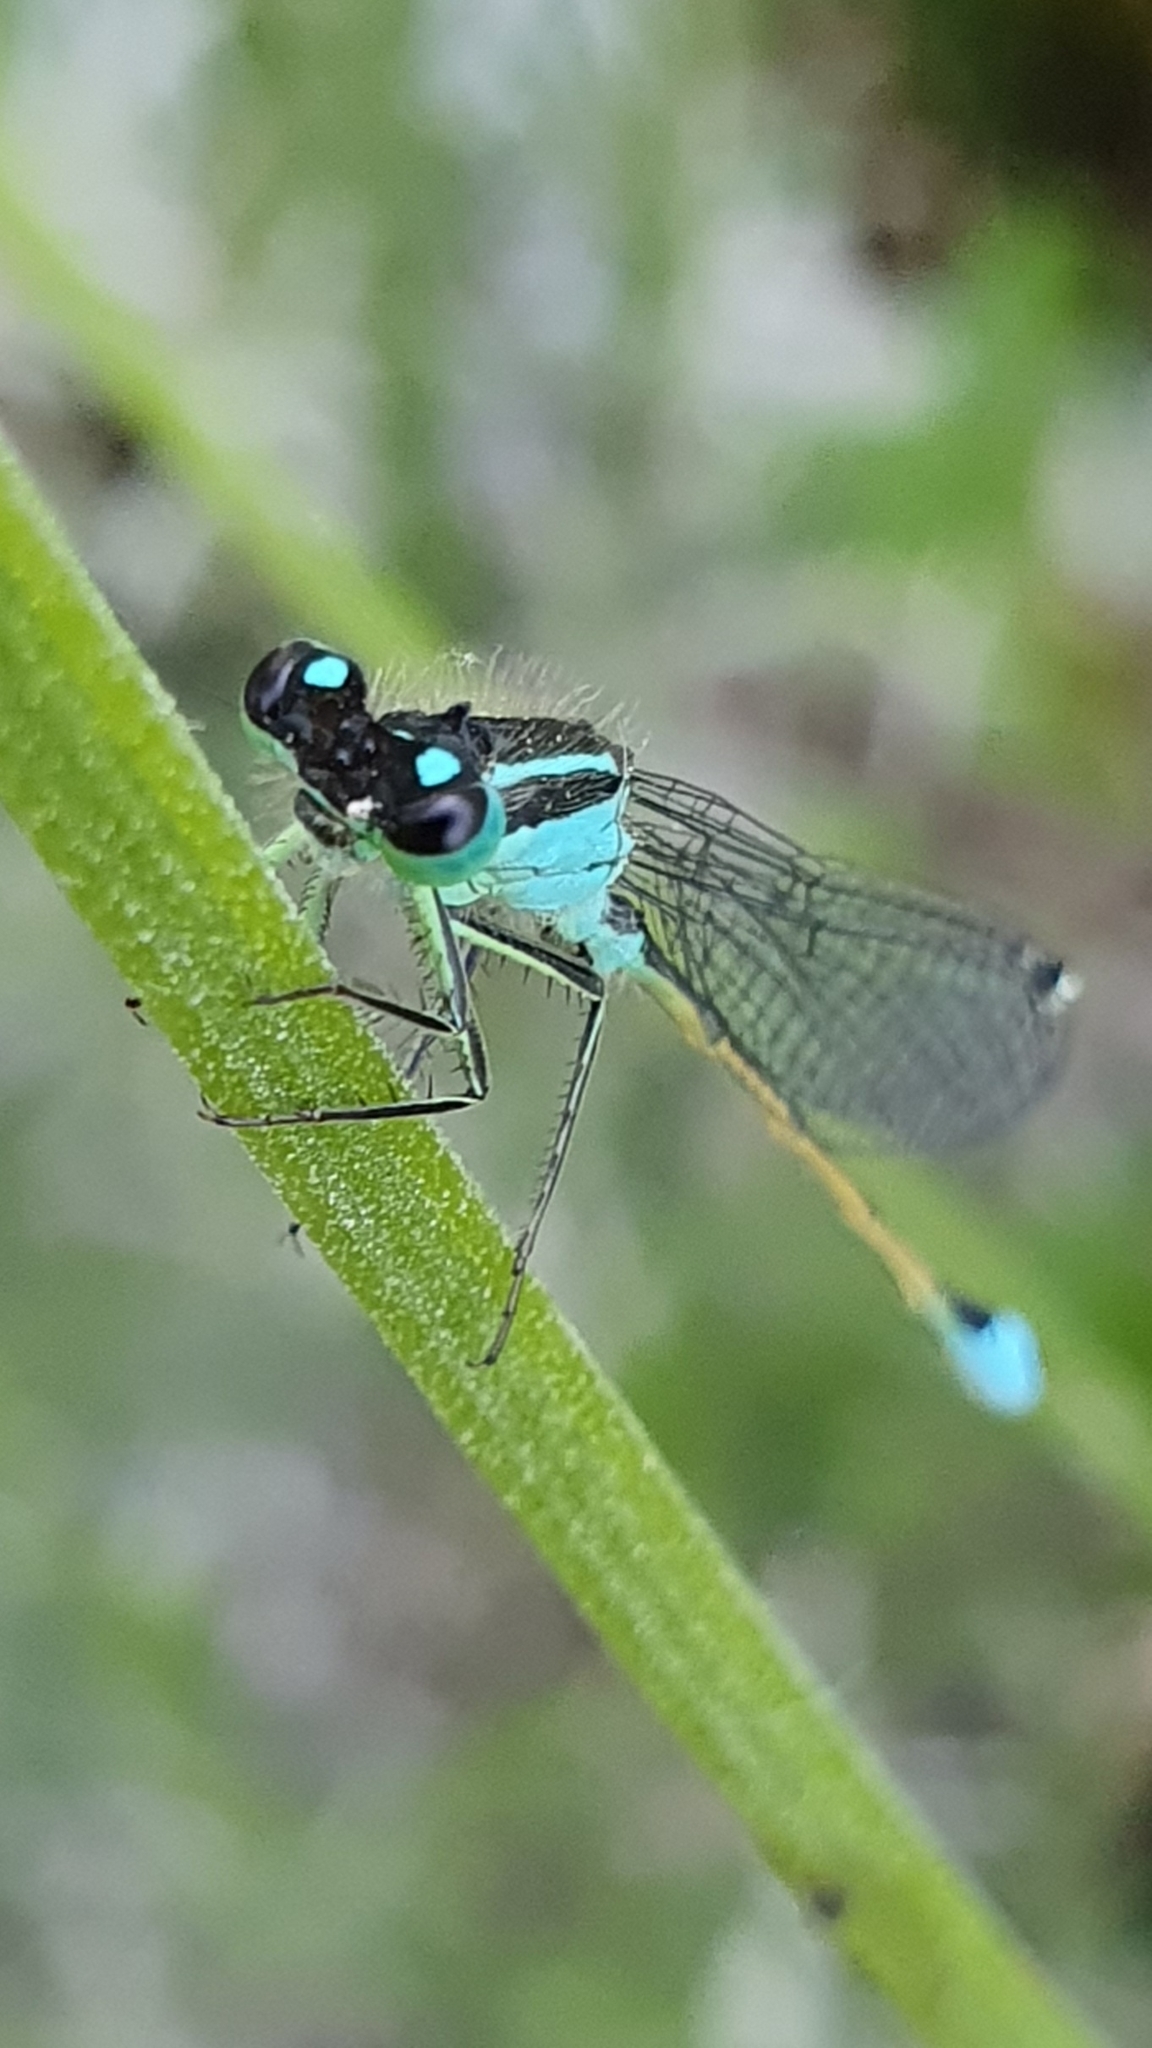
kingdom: Animalia
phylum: Arthropoda
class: Insecta
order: Odonata
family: Coenagrionidae
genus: Ischnura
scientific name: Ischnura elegans
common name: Blue-tailed damselfly
